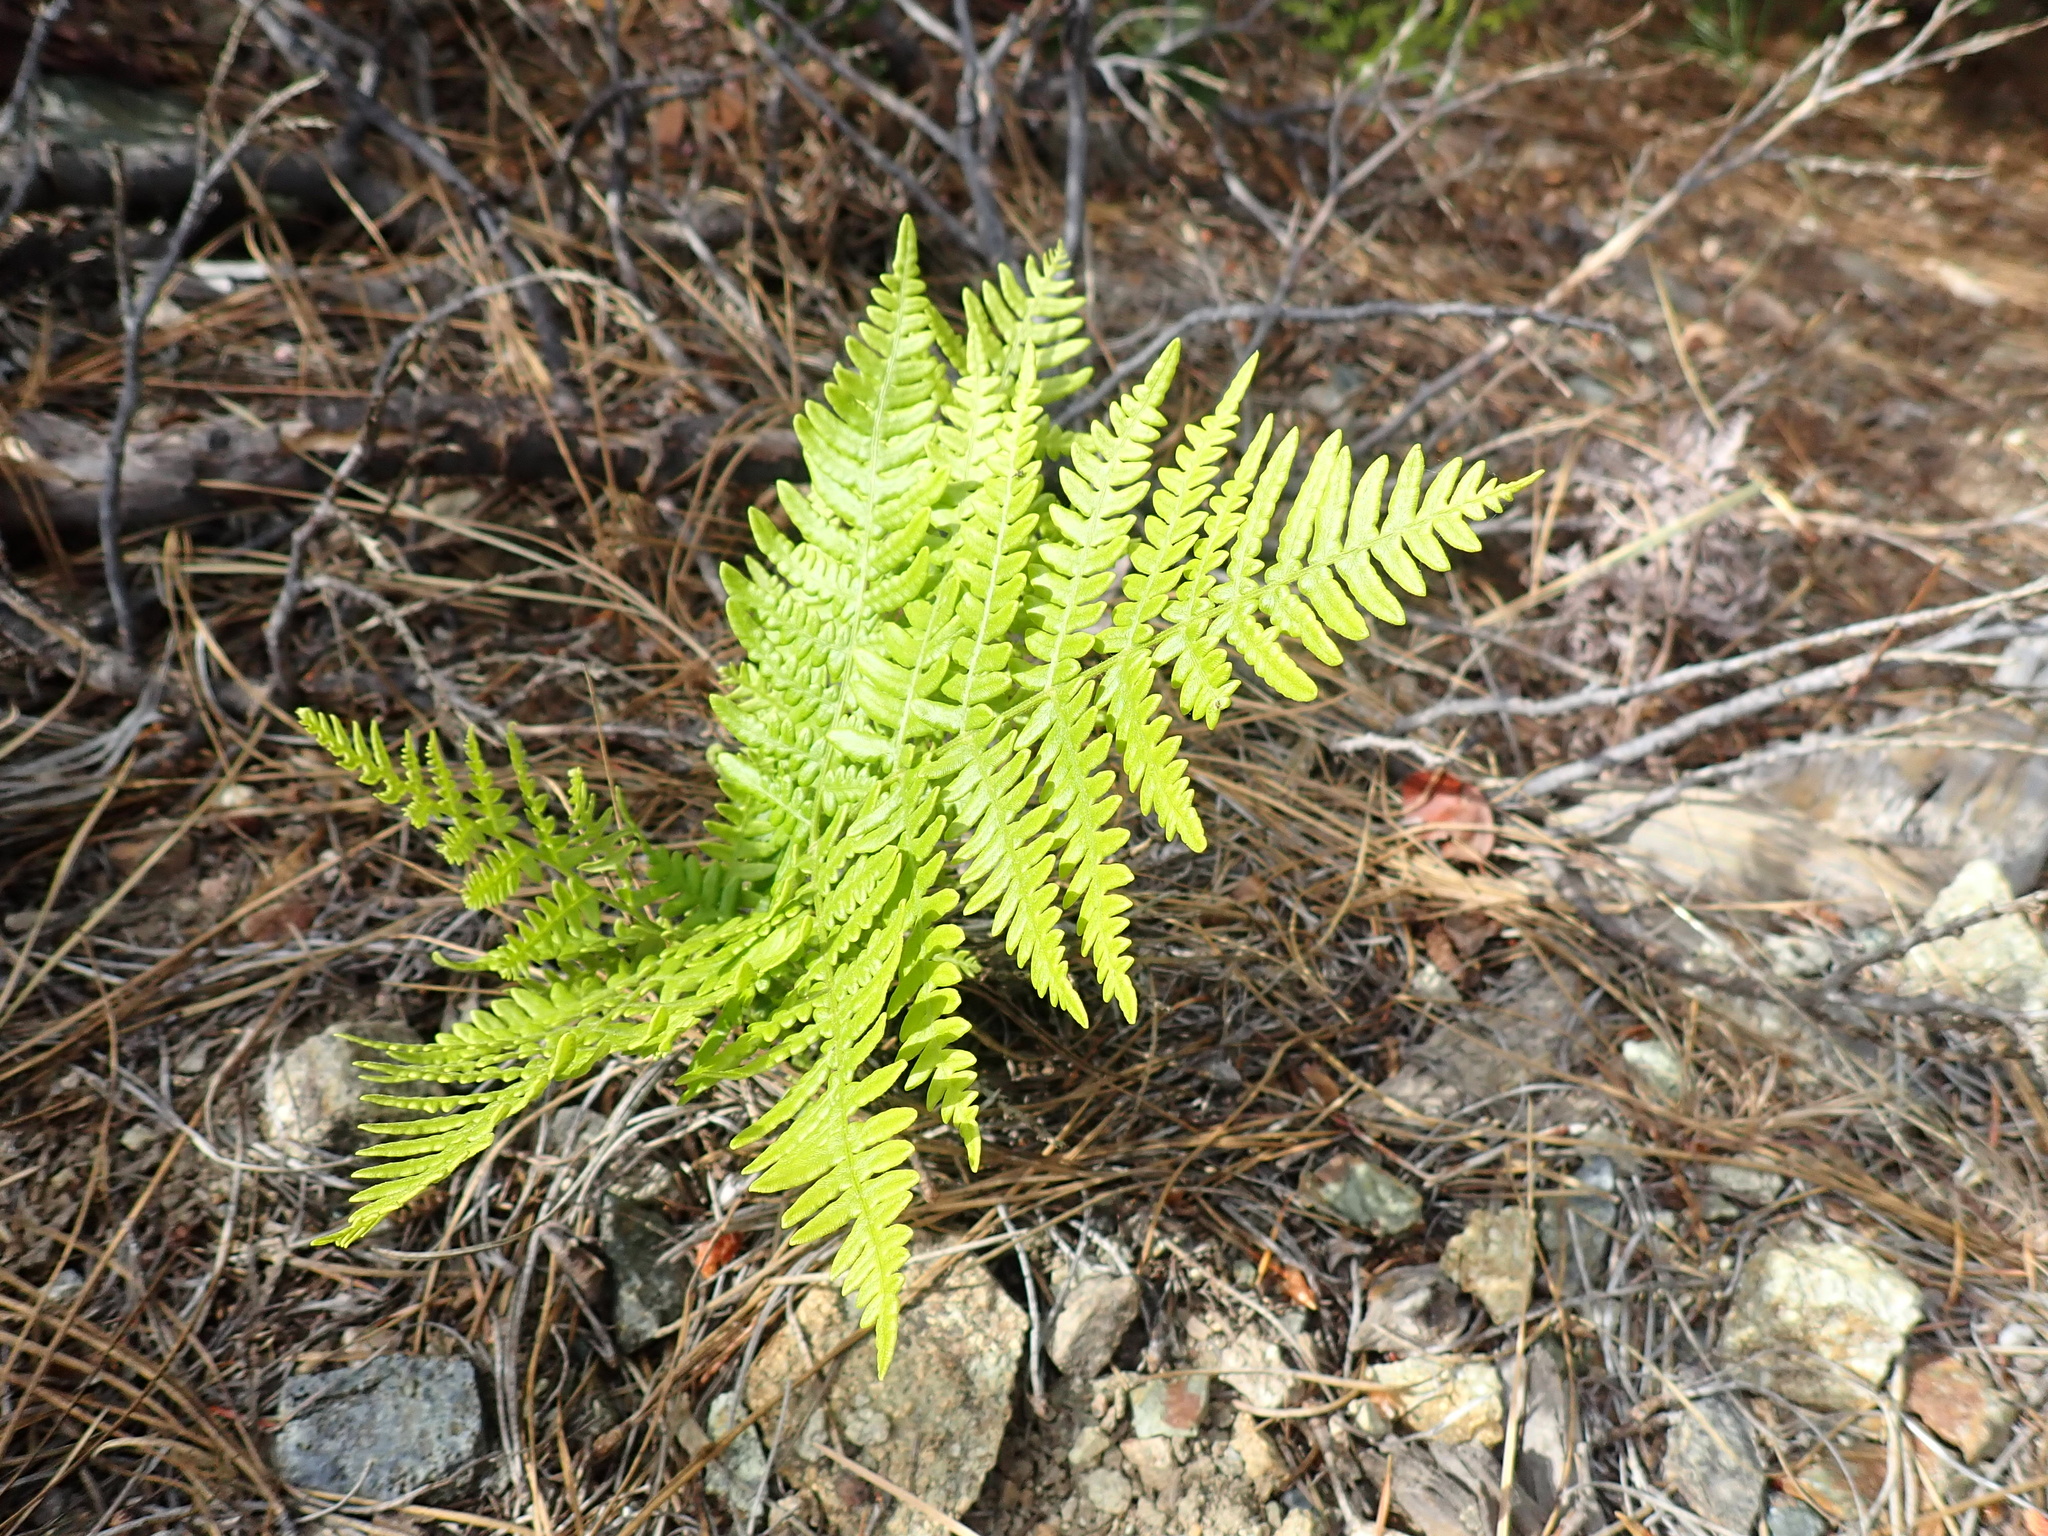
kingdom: Plantae
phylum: Tracheophyta
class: Polypodiopsida
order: Polypodiales
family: Dennstaedtiaceae
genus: Pteridium
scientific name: Pteridium aquilinum
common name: Bracken
